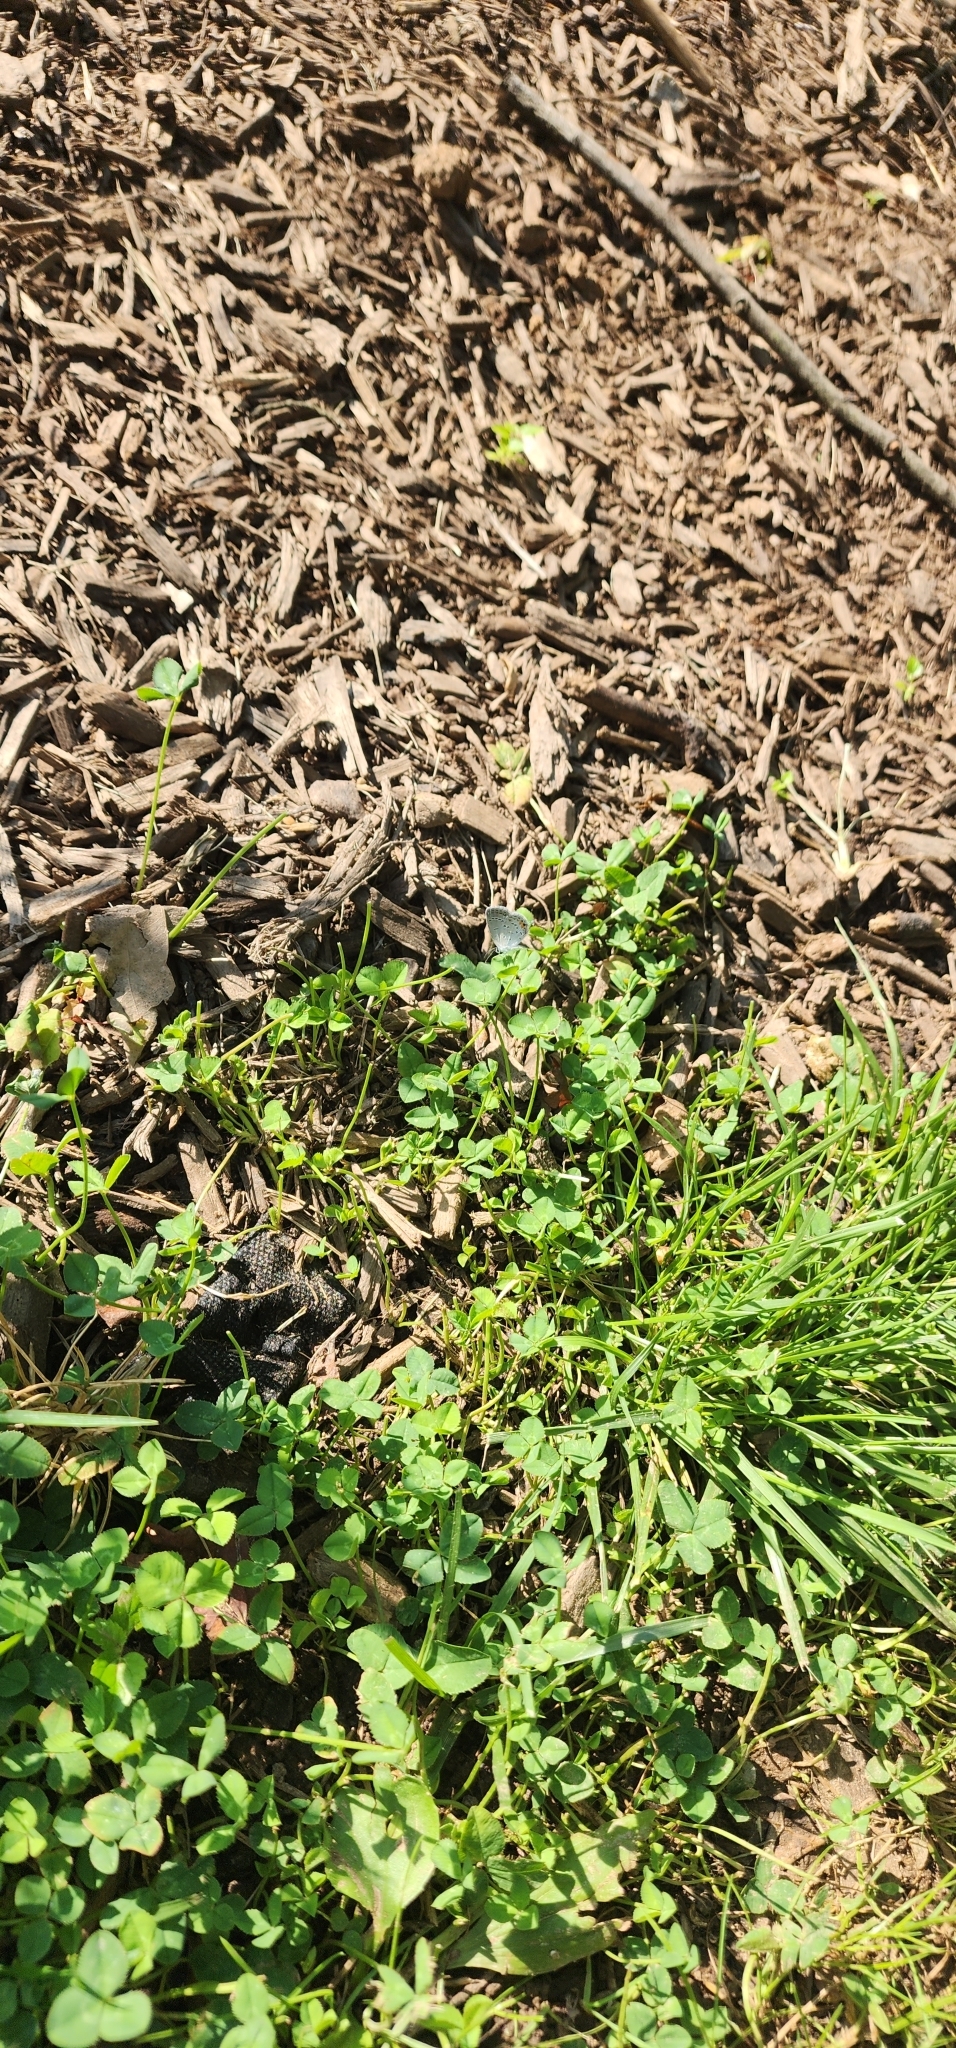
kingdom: Animalia
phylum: Arthropoda
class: Insecta
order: Lepidoptera
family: Lycaenidae
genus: Elkalyce
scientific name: Elkalyce comyntas
